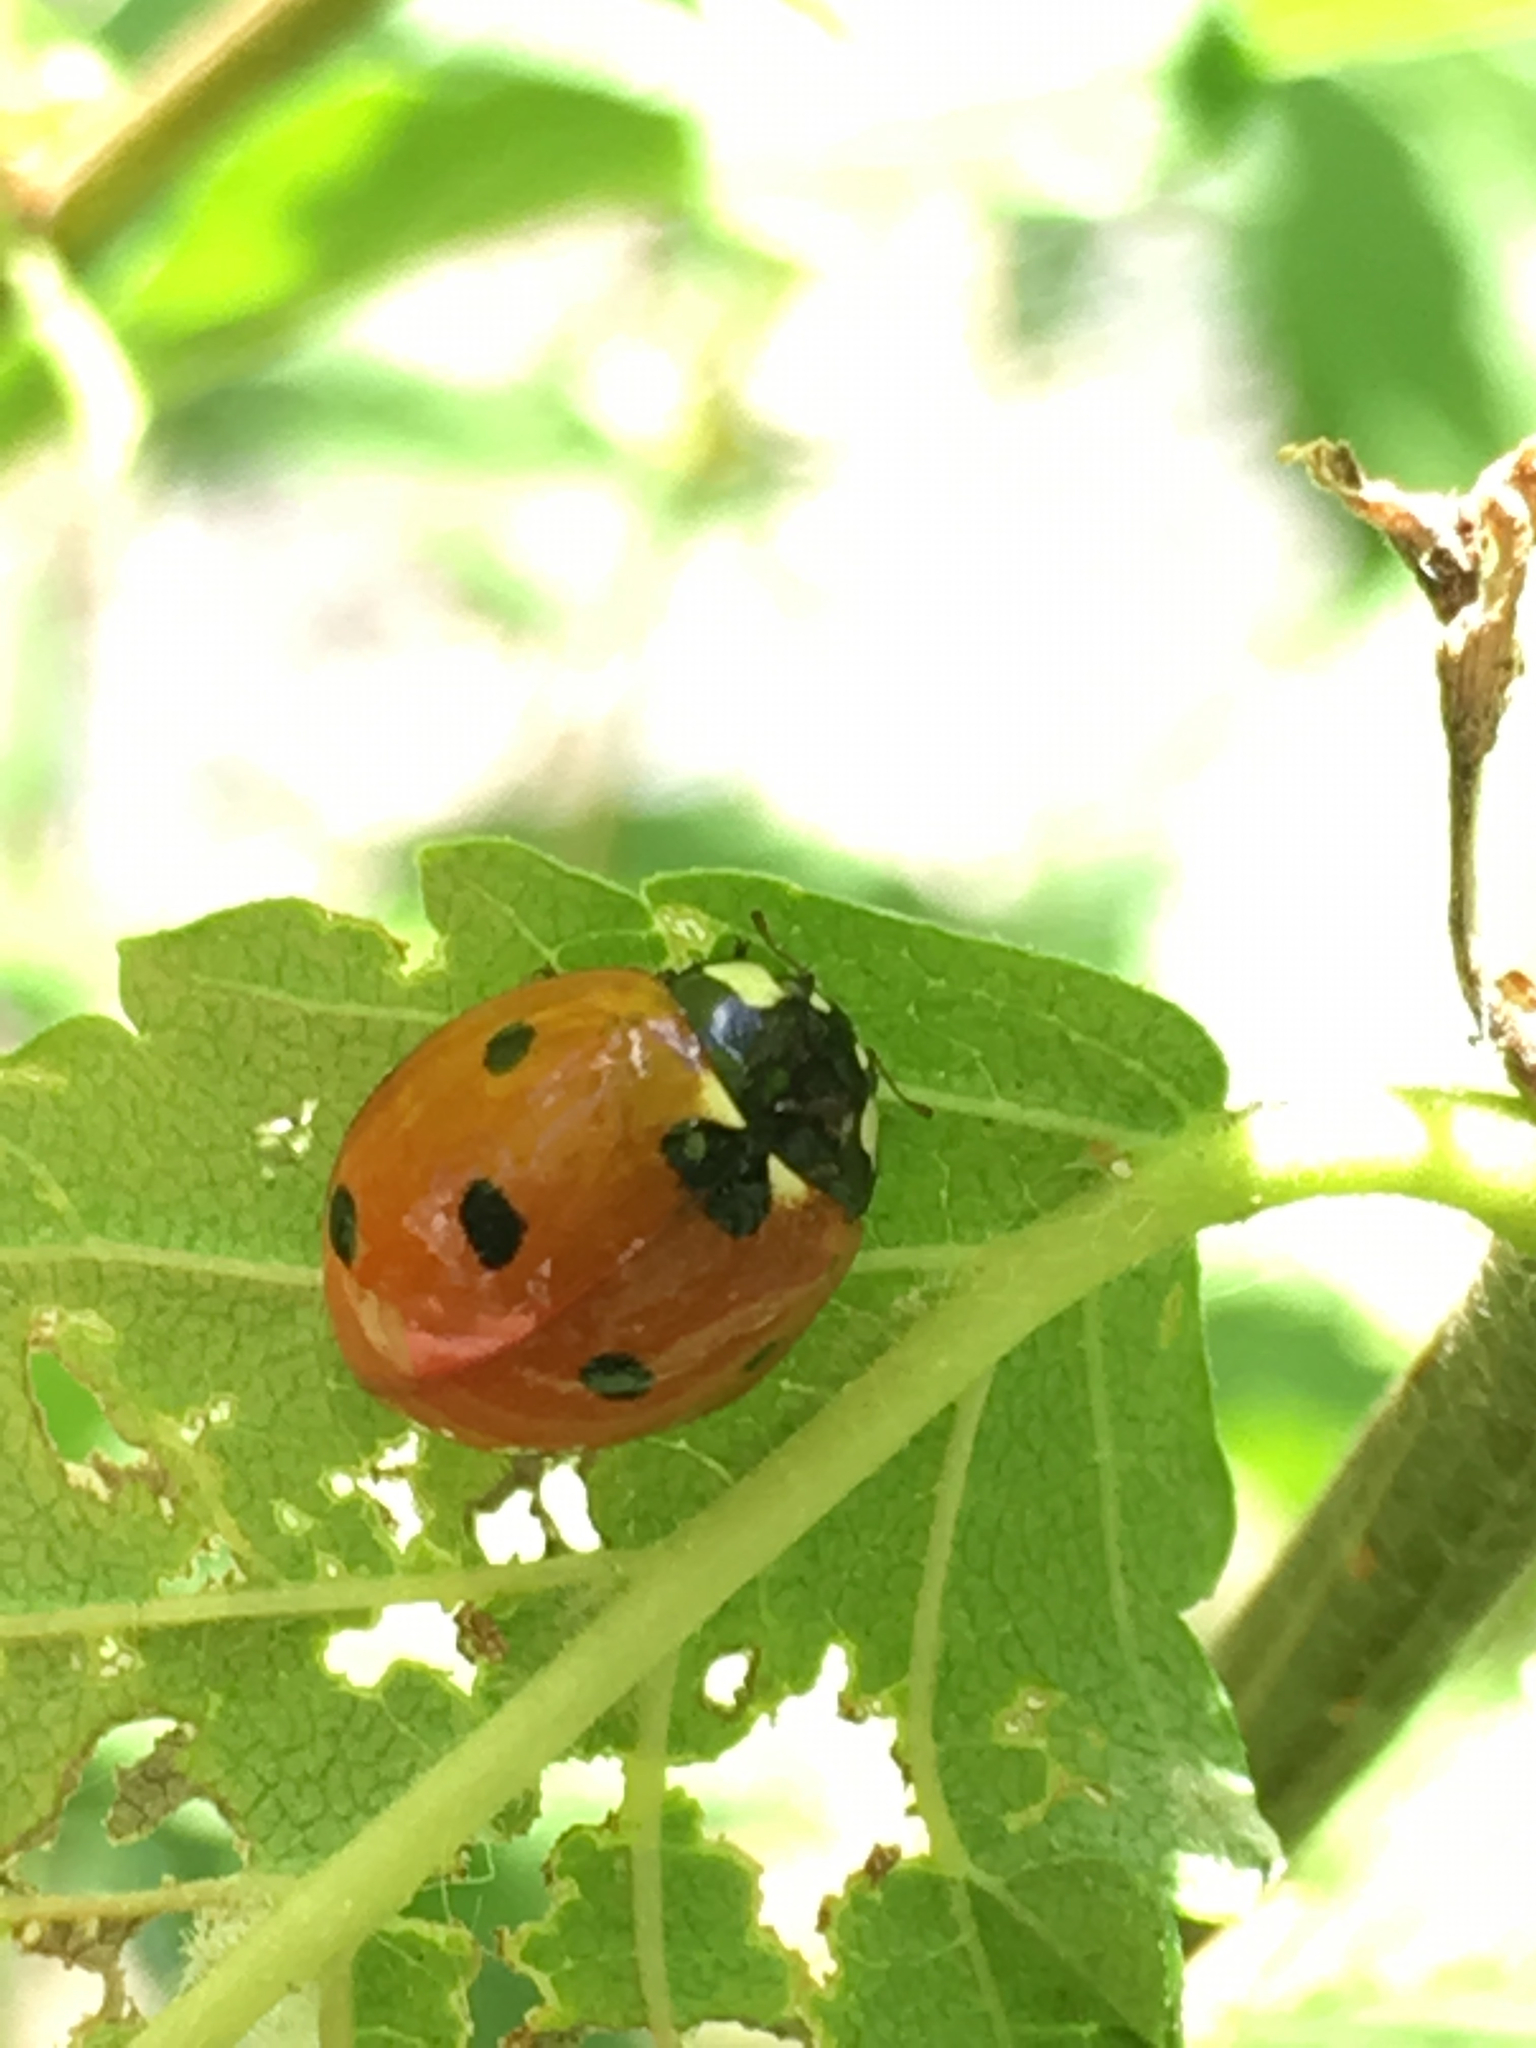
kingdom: Animalia
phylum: Arthropoda
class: Insecta
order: Coleoptera
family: Coccinellidae
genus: Coccinella
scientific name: Coccinella septempunctata
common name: Sevenspotted lady beetle
